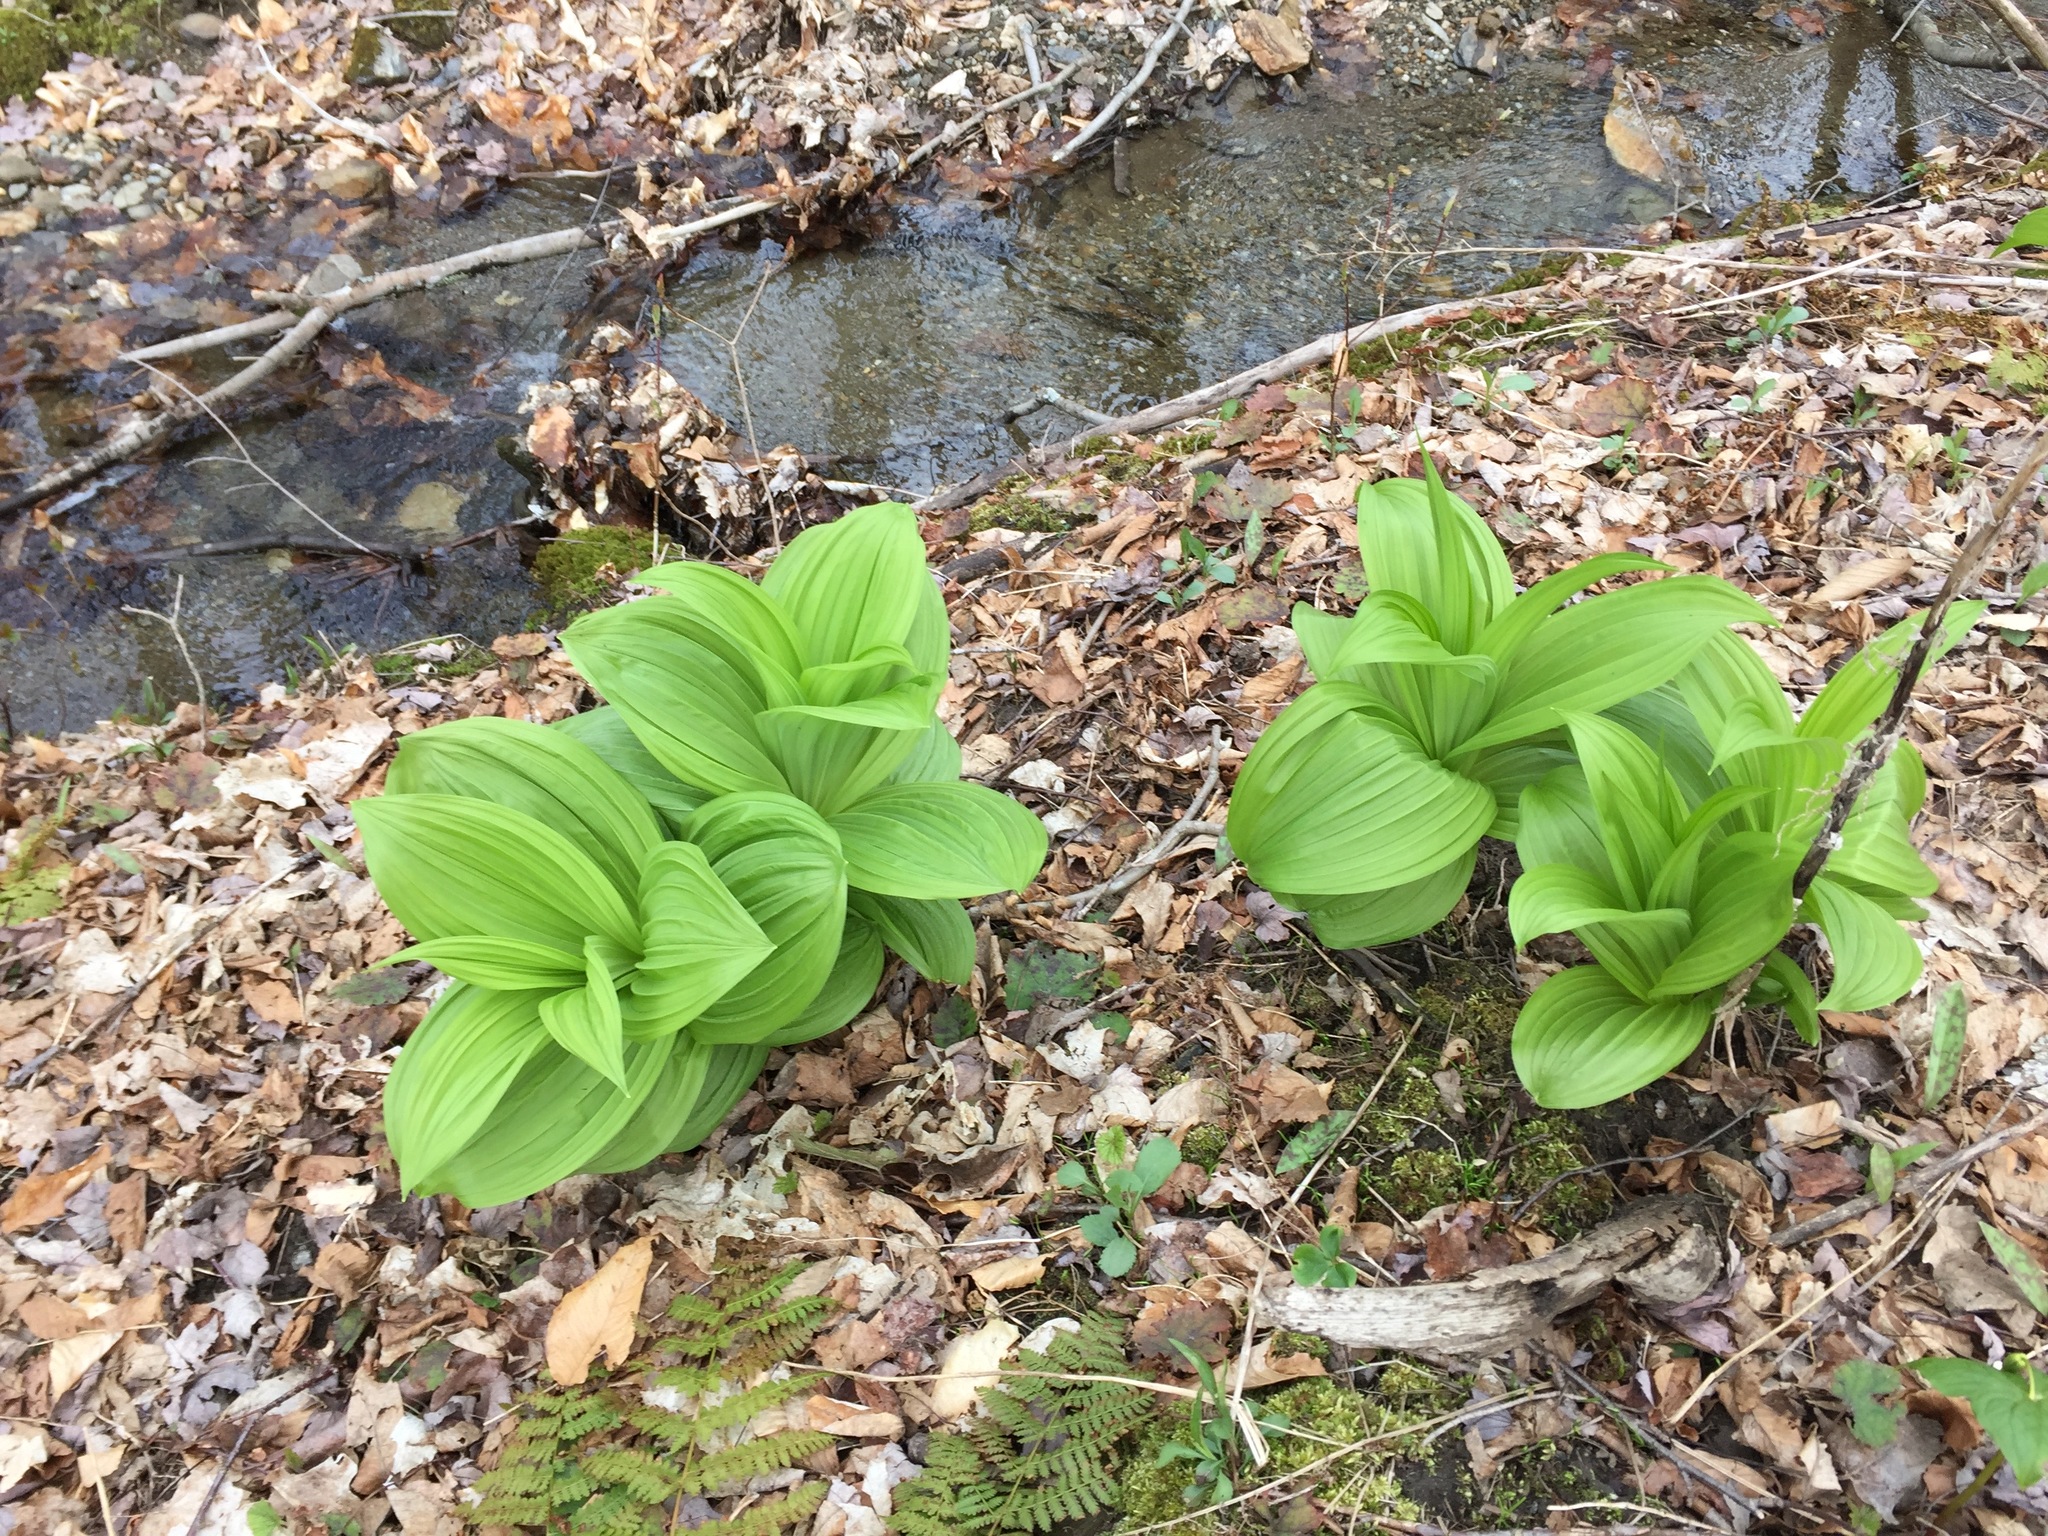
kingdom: Plantae
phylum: Tracheophyta
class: Liliopsida
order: Liliales
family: Melanthiaceae
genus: Veratrum
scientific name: Veratrum viride
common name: American false hellebore
